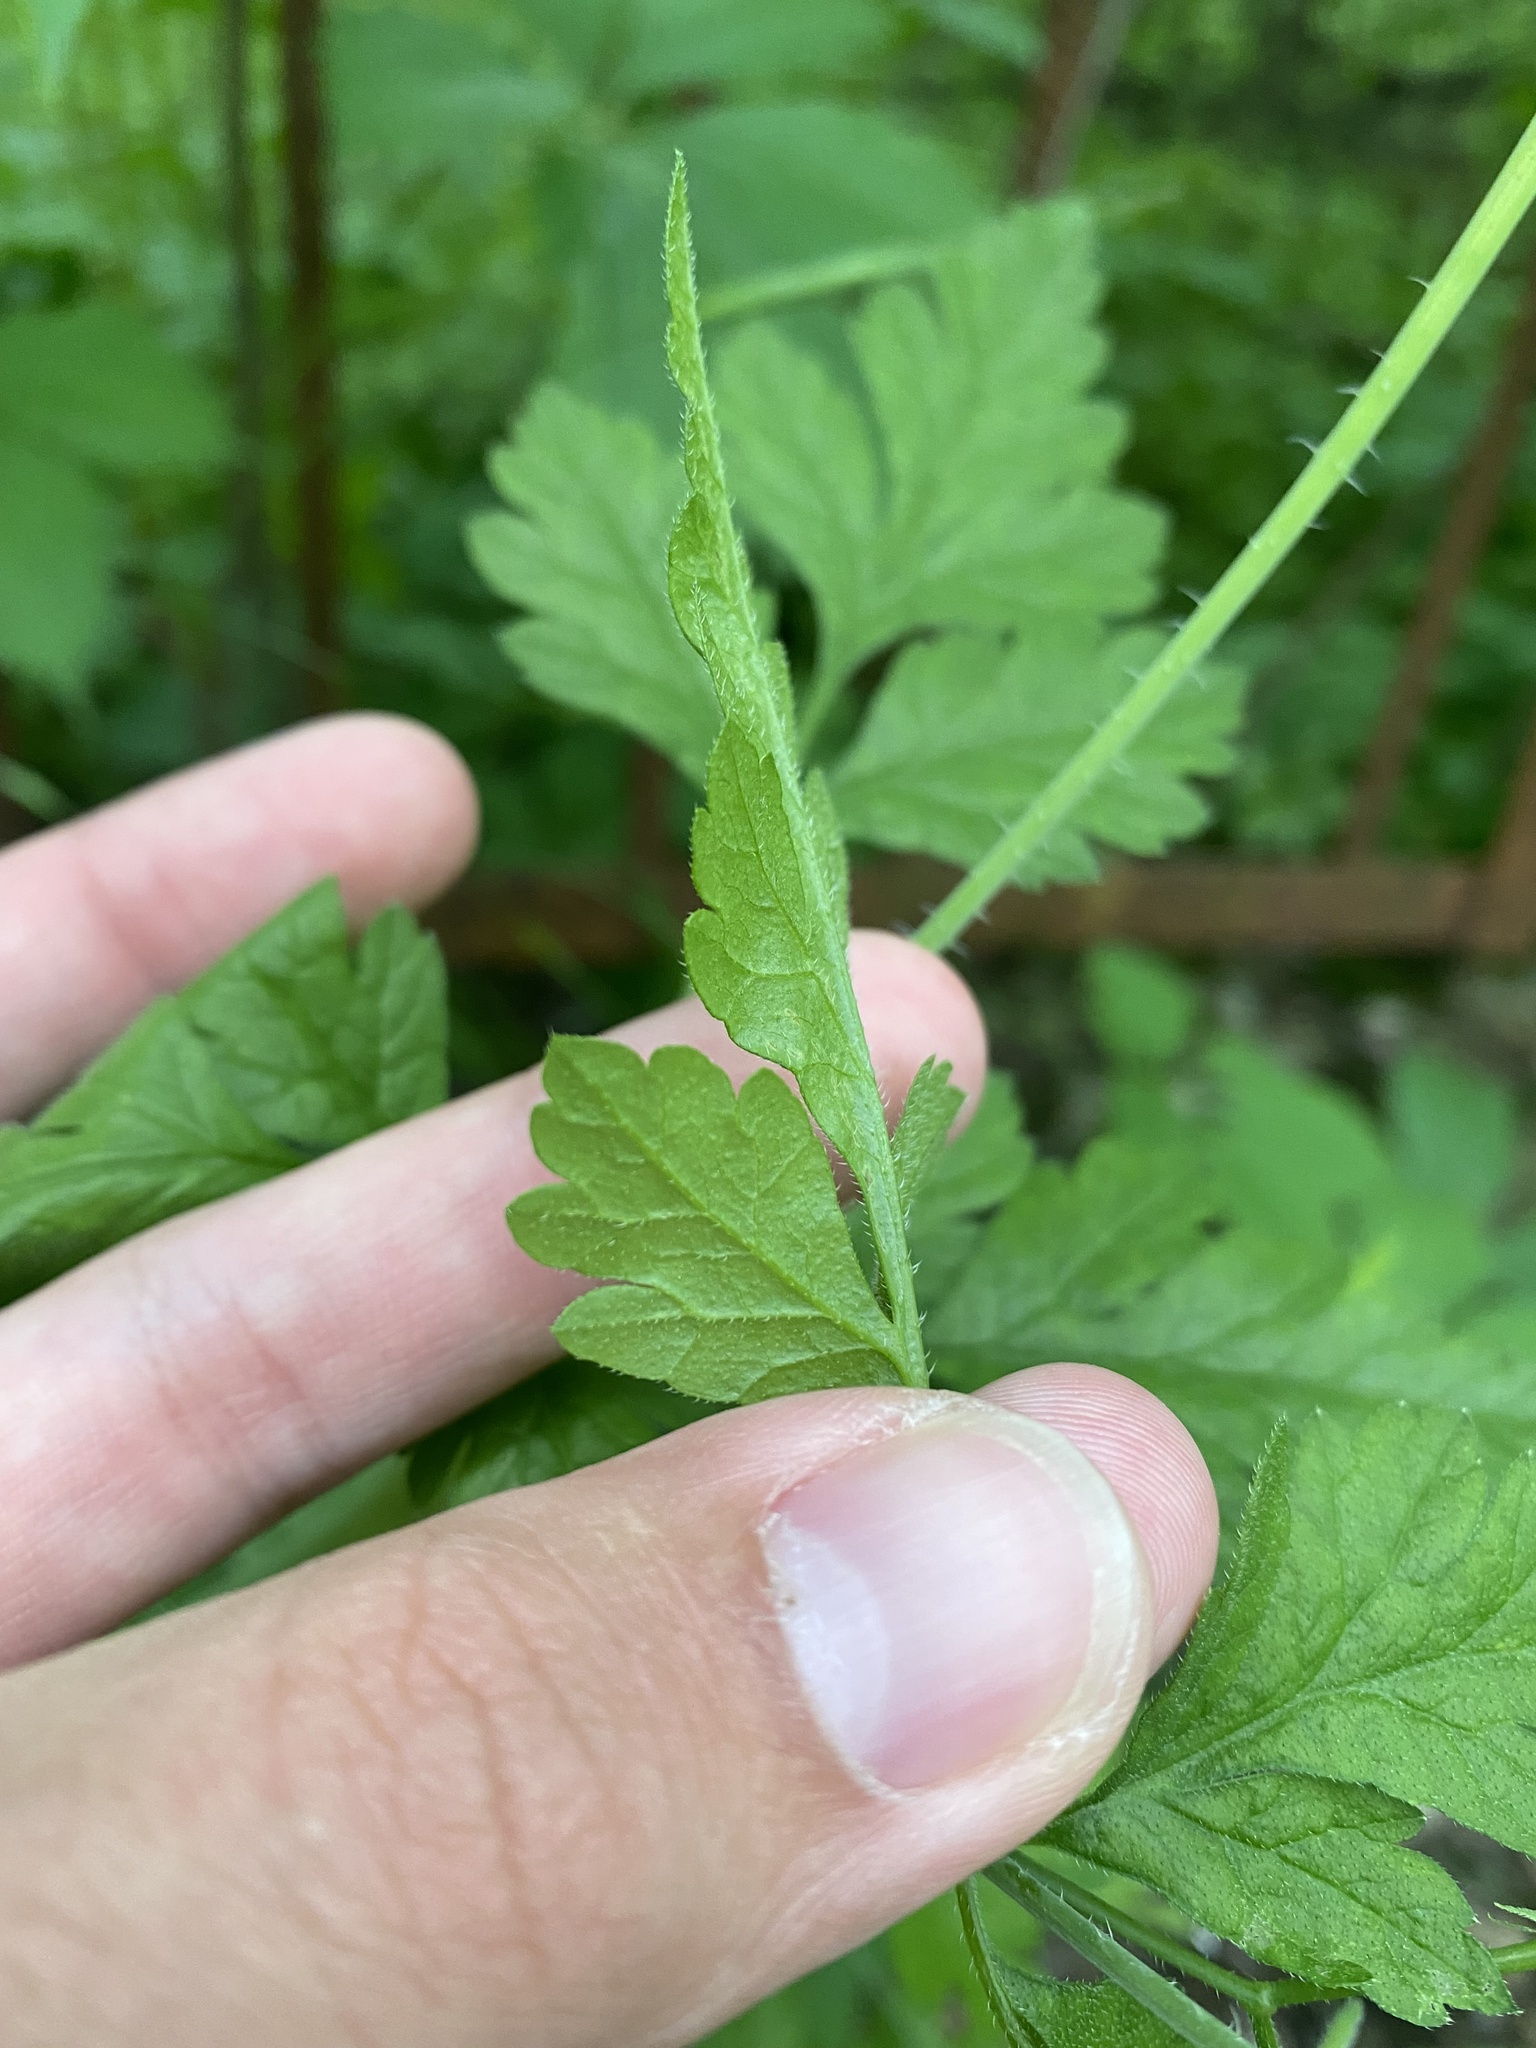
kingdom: Plantae
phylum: Tracheophyta
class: Magnoliopsida
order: Apiales
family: Apiaceae
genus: Chaerophyllum
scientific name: Chaerophyllum nodosum
